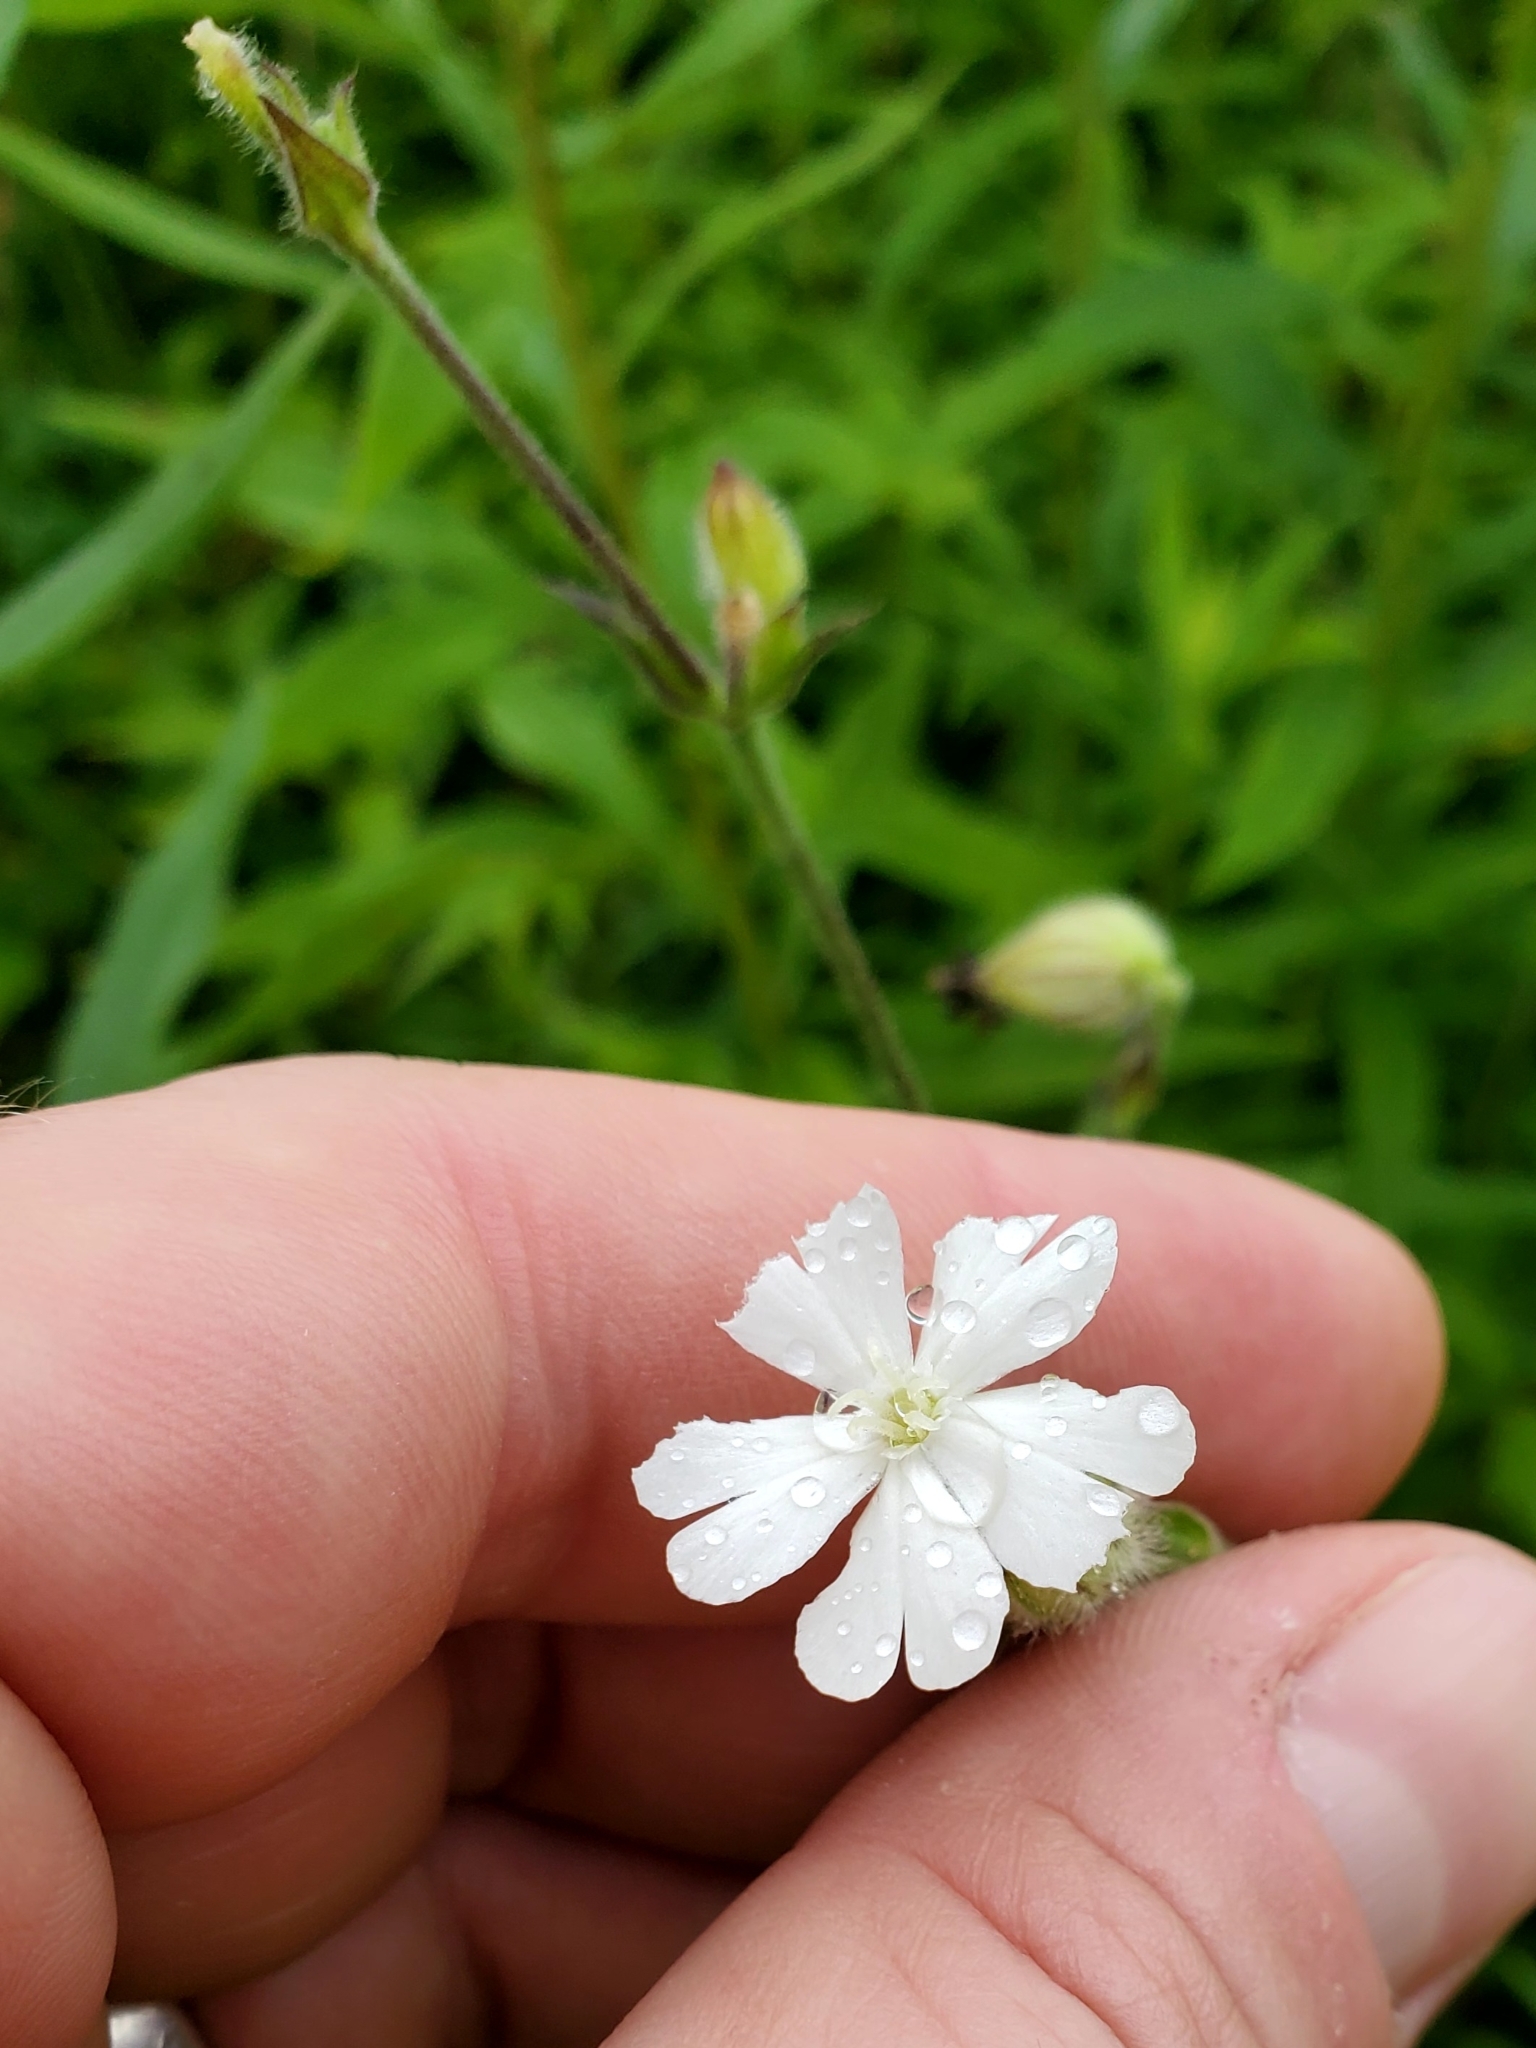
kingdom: Plantae
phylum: Tracheophyta
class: Magnoliopsida
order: Caryophyllales
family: Caryophyllaceae
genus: Silene
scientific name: Silene latifolia
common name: White campion
